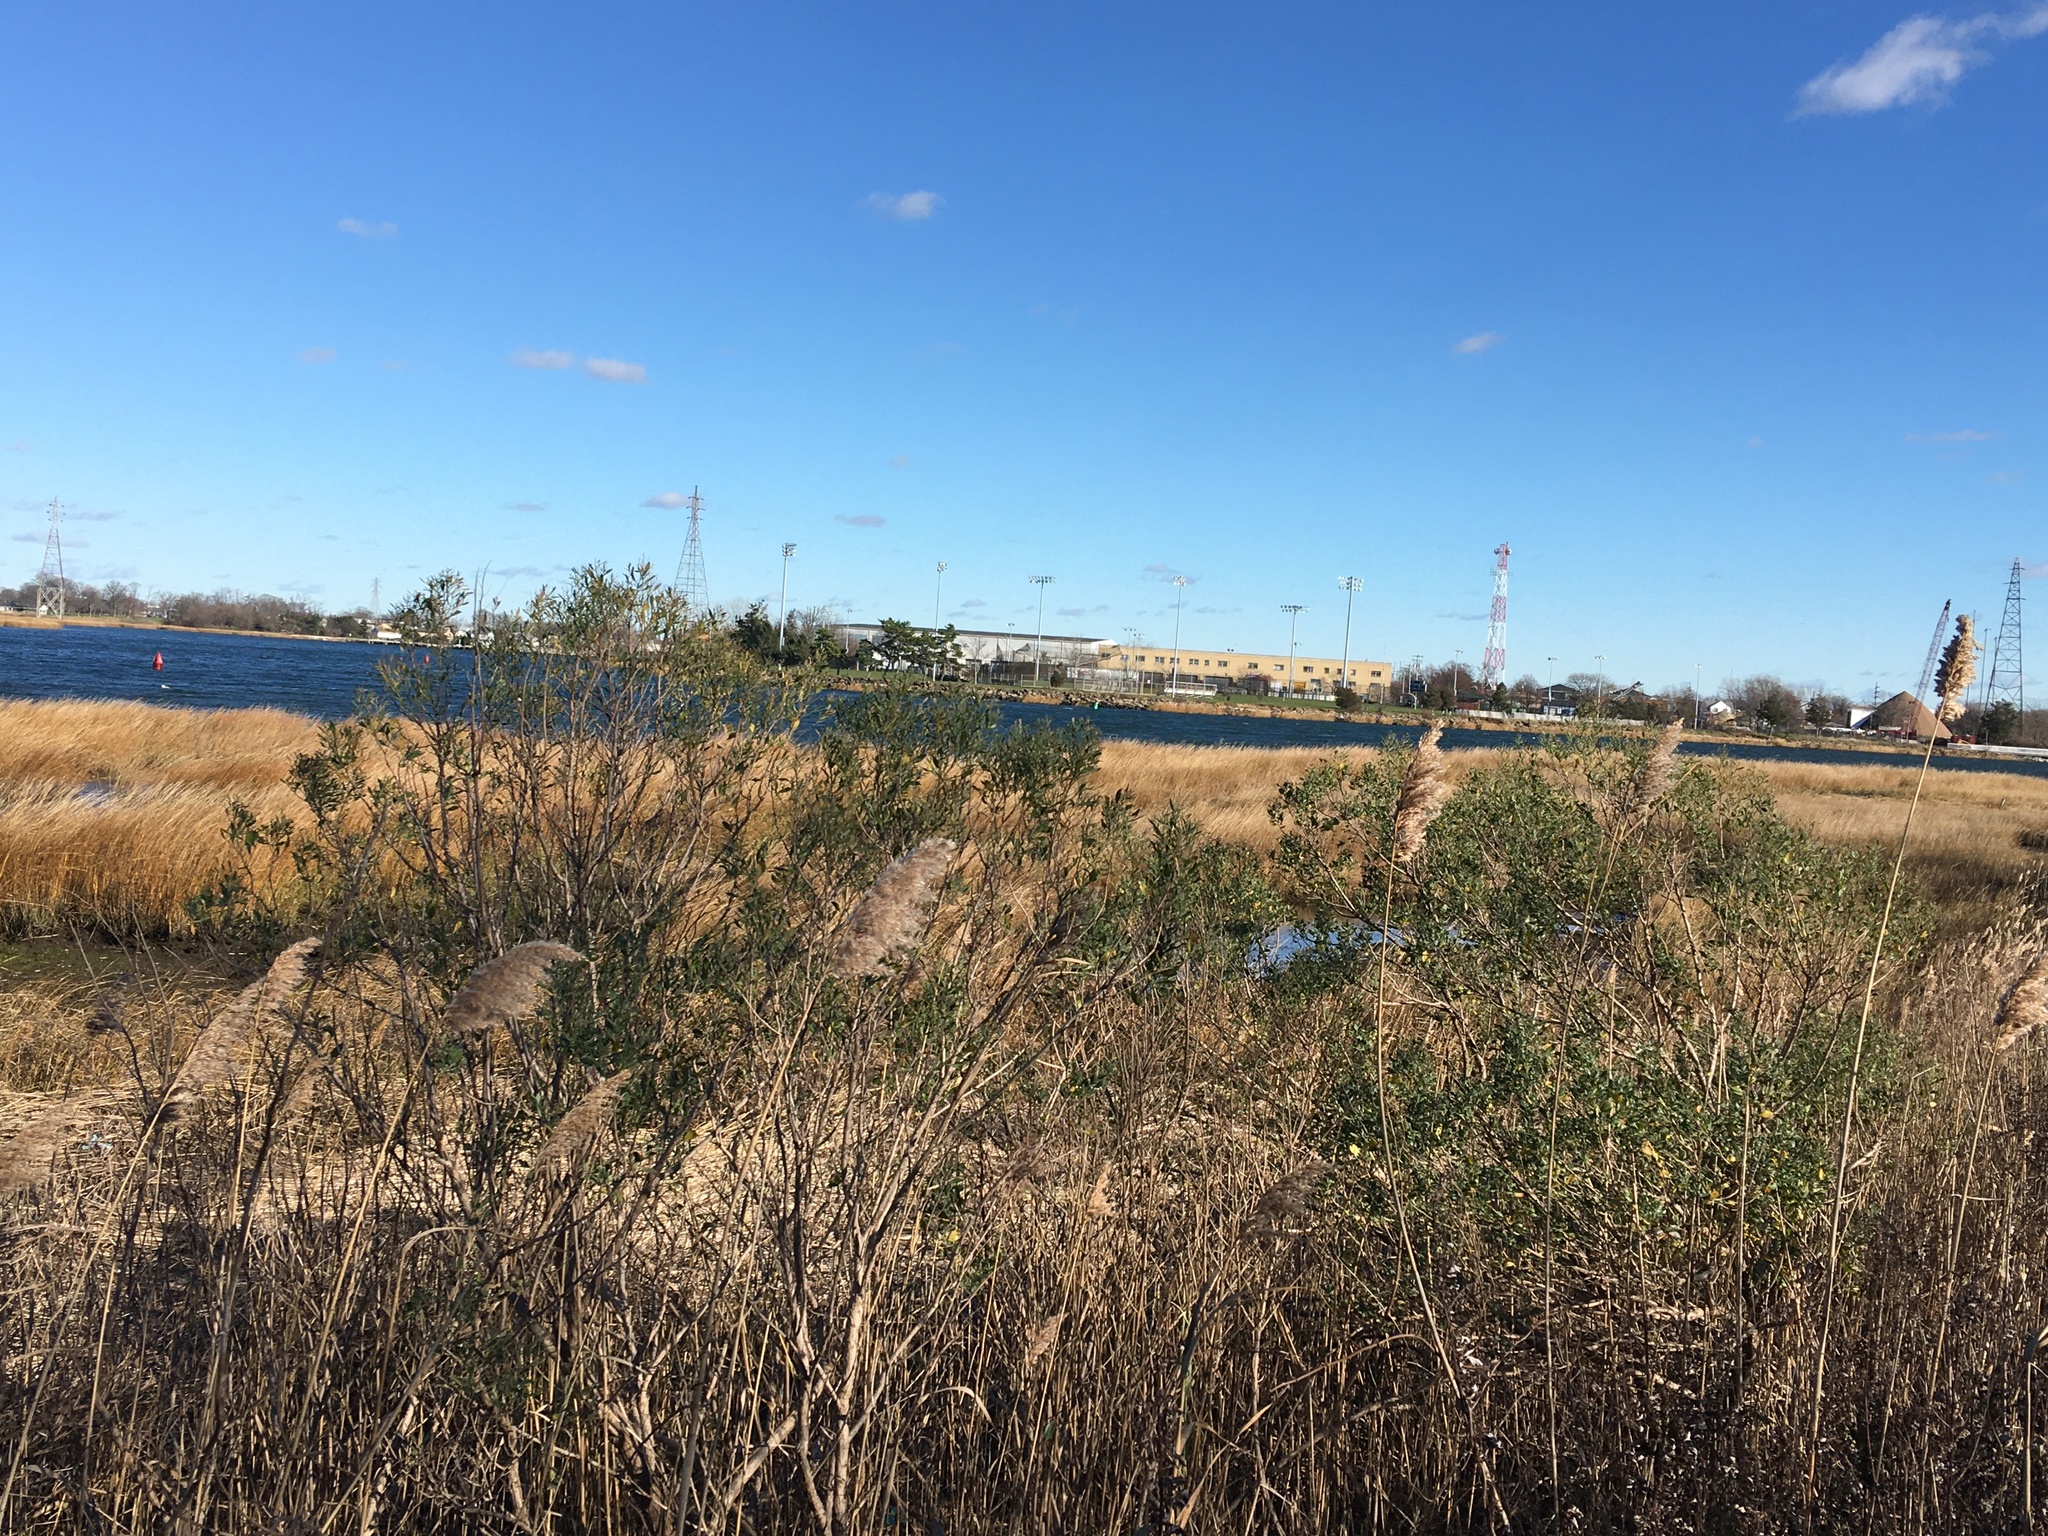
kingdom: Plantae
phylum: Tracheophyta
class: Magnoliopsida
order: Asterales
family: Asteraceae
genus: Baccharis
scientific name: Baccharis halimifolia
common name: Eastern baccharis
